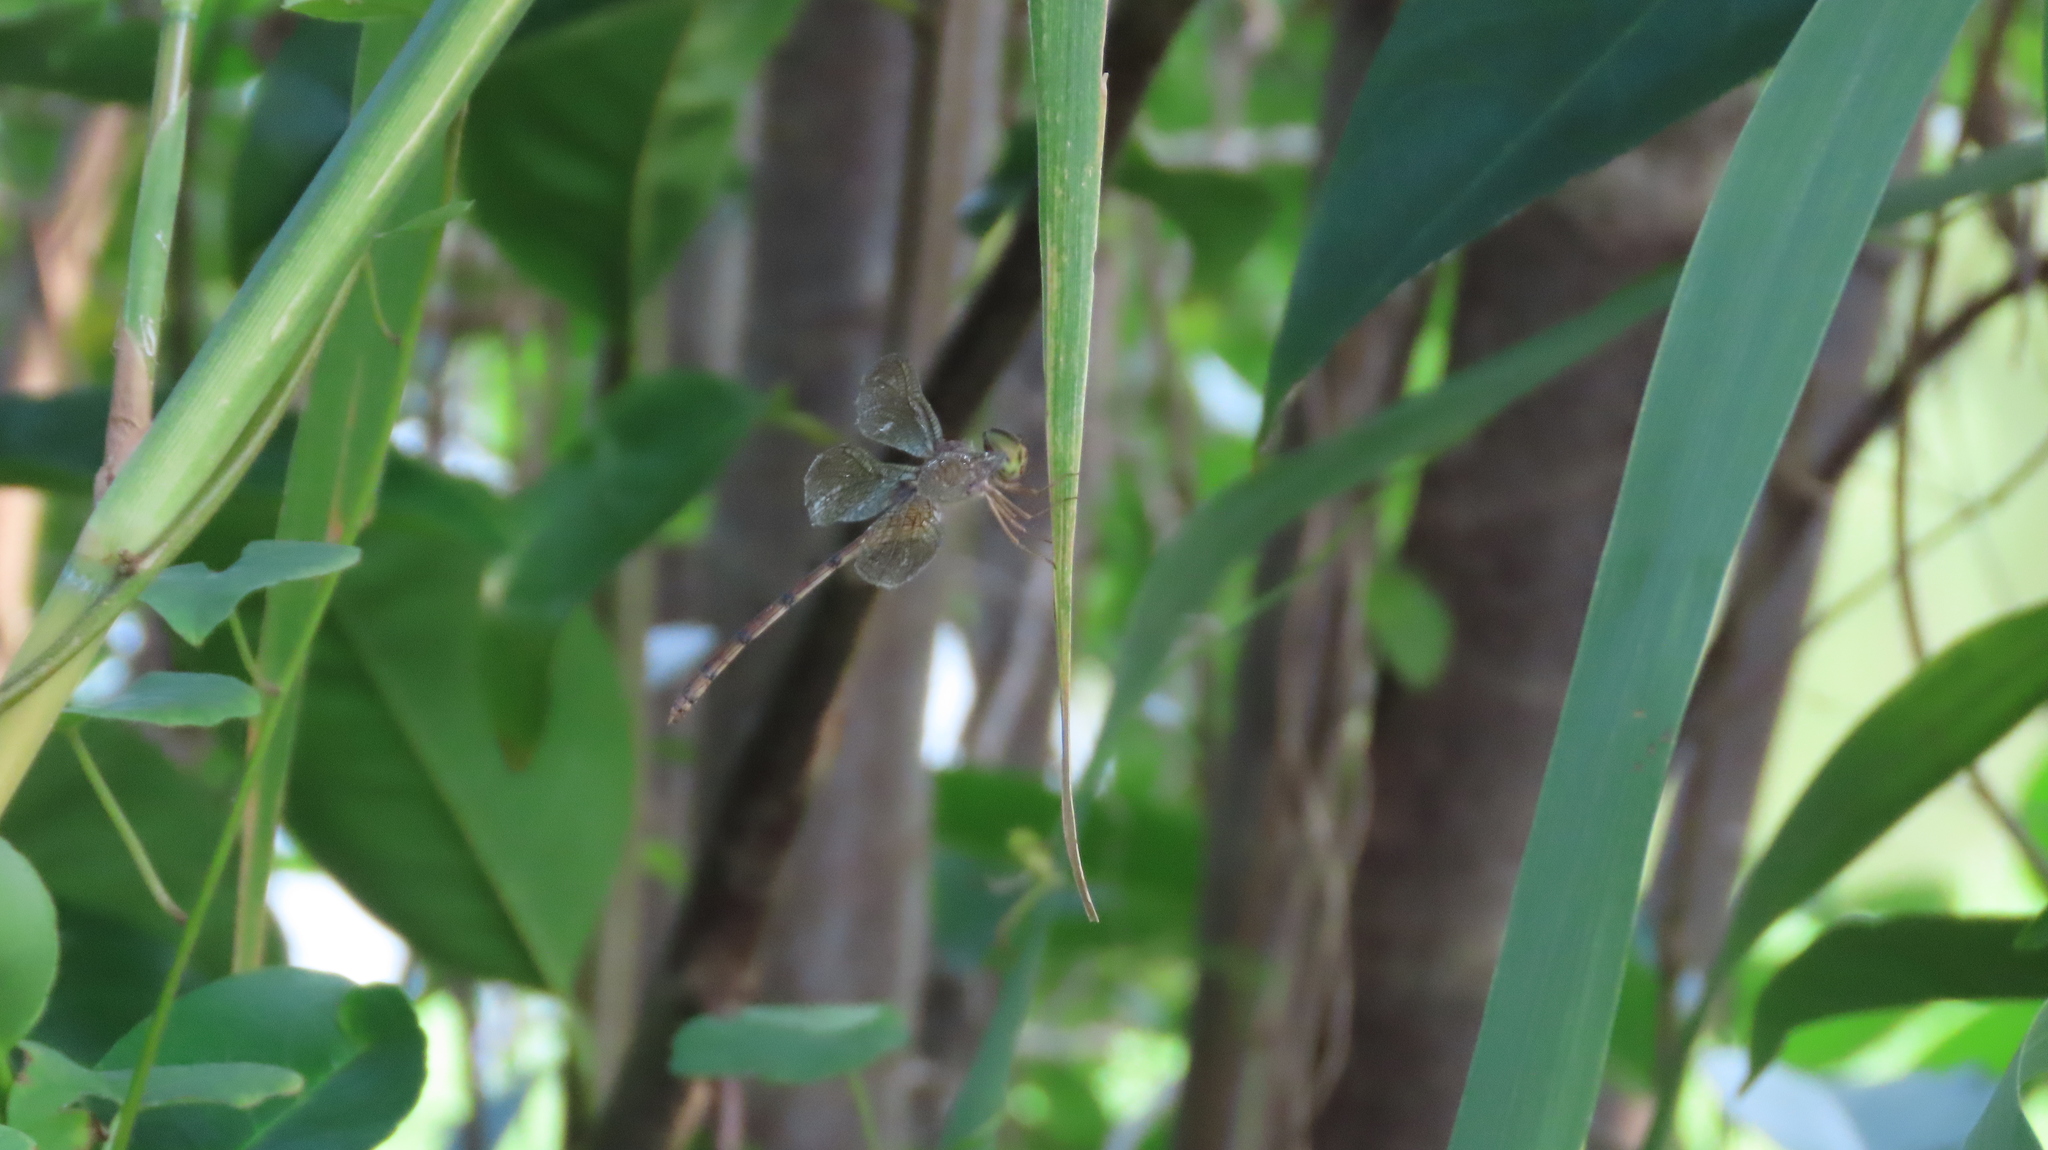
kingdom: Animalia
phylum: Arthropoda
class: Insecta
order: Odonata
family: Libellulidae
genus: Zyxomma
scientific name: Zyxomma petiolatum
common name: Dingy dusk-darter
